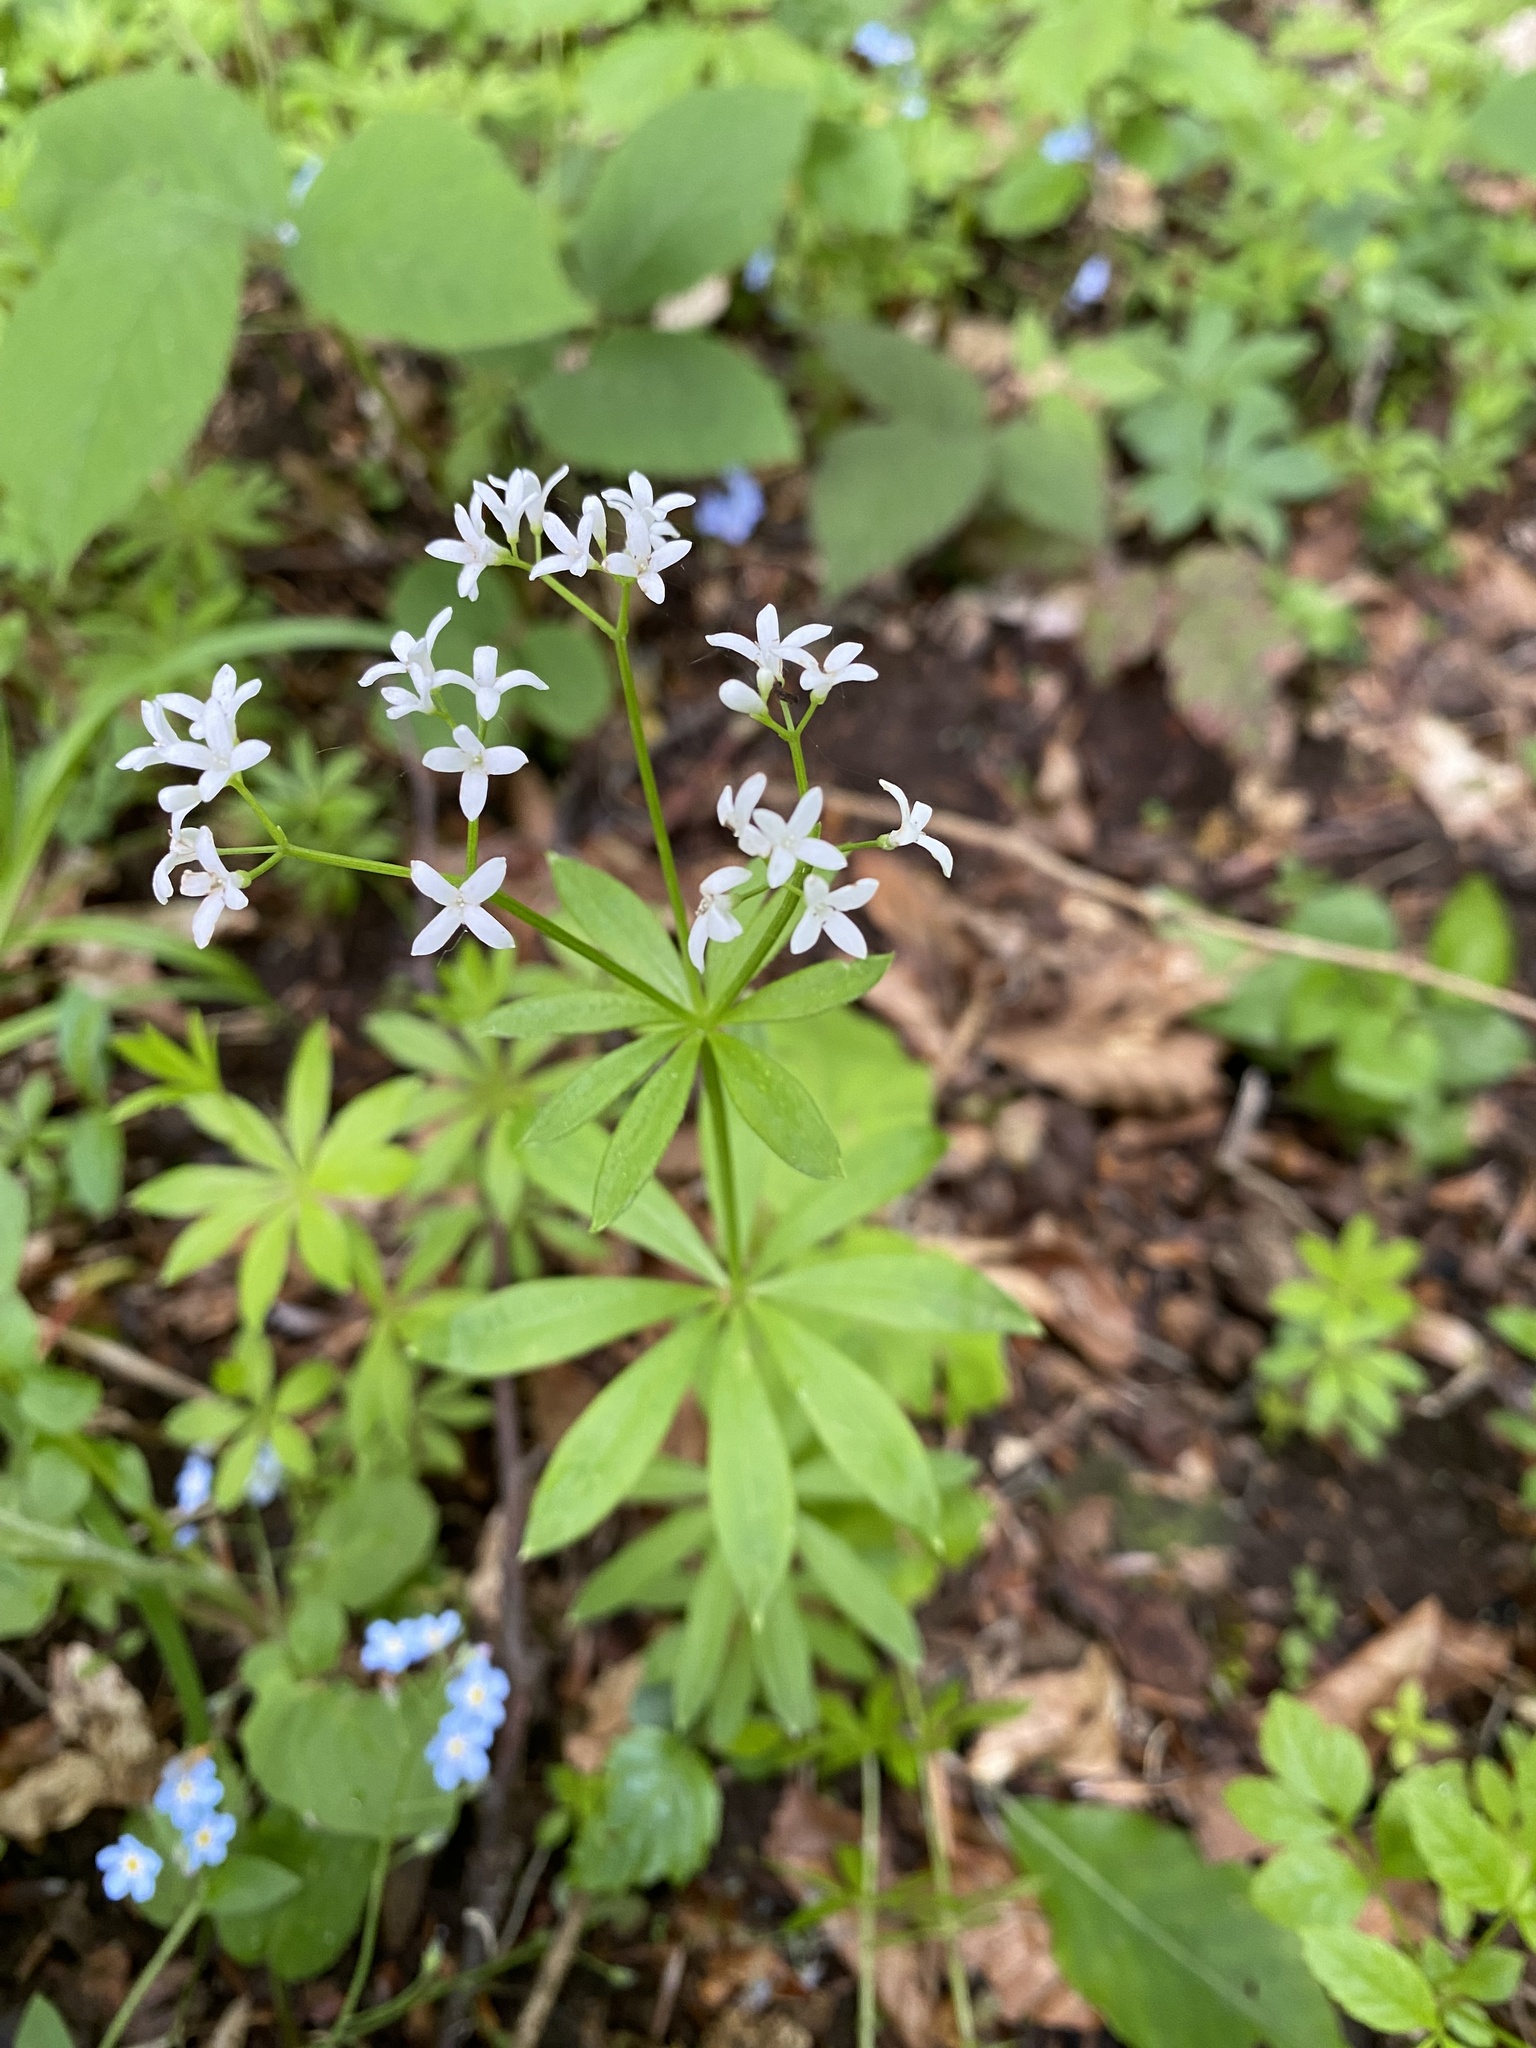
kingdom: Plantae
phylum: Tracheophyta
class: Magnoliopsida
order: Gentianales
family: Rubiaceae
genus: Galium
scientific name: Galium odoratum
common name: Sweet woodruff
